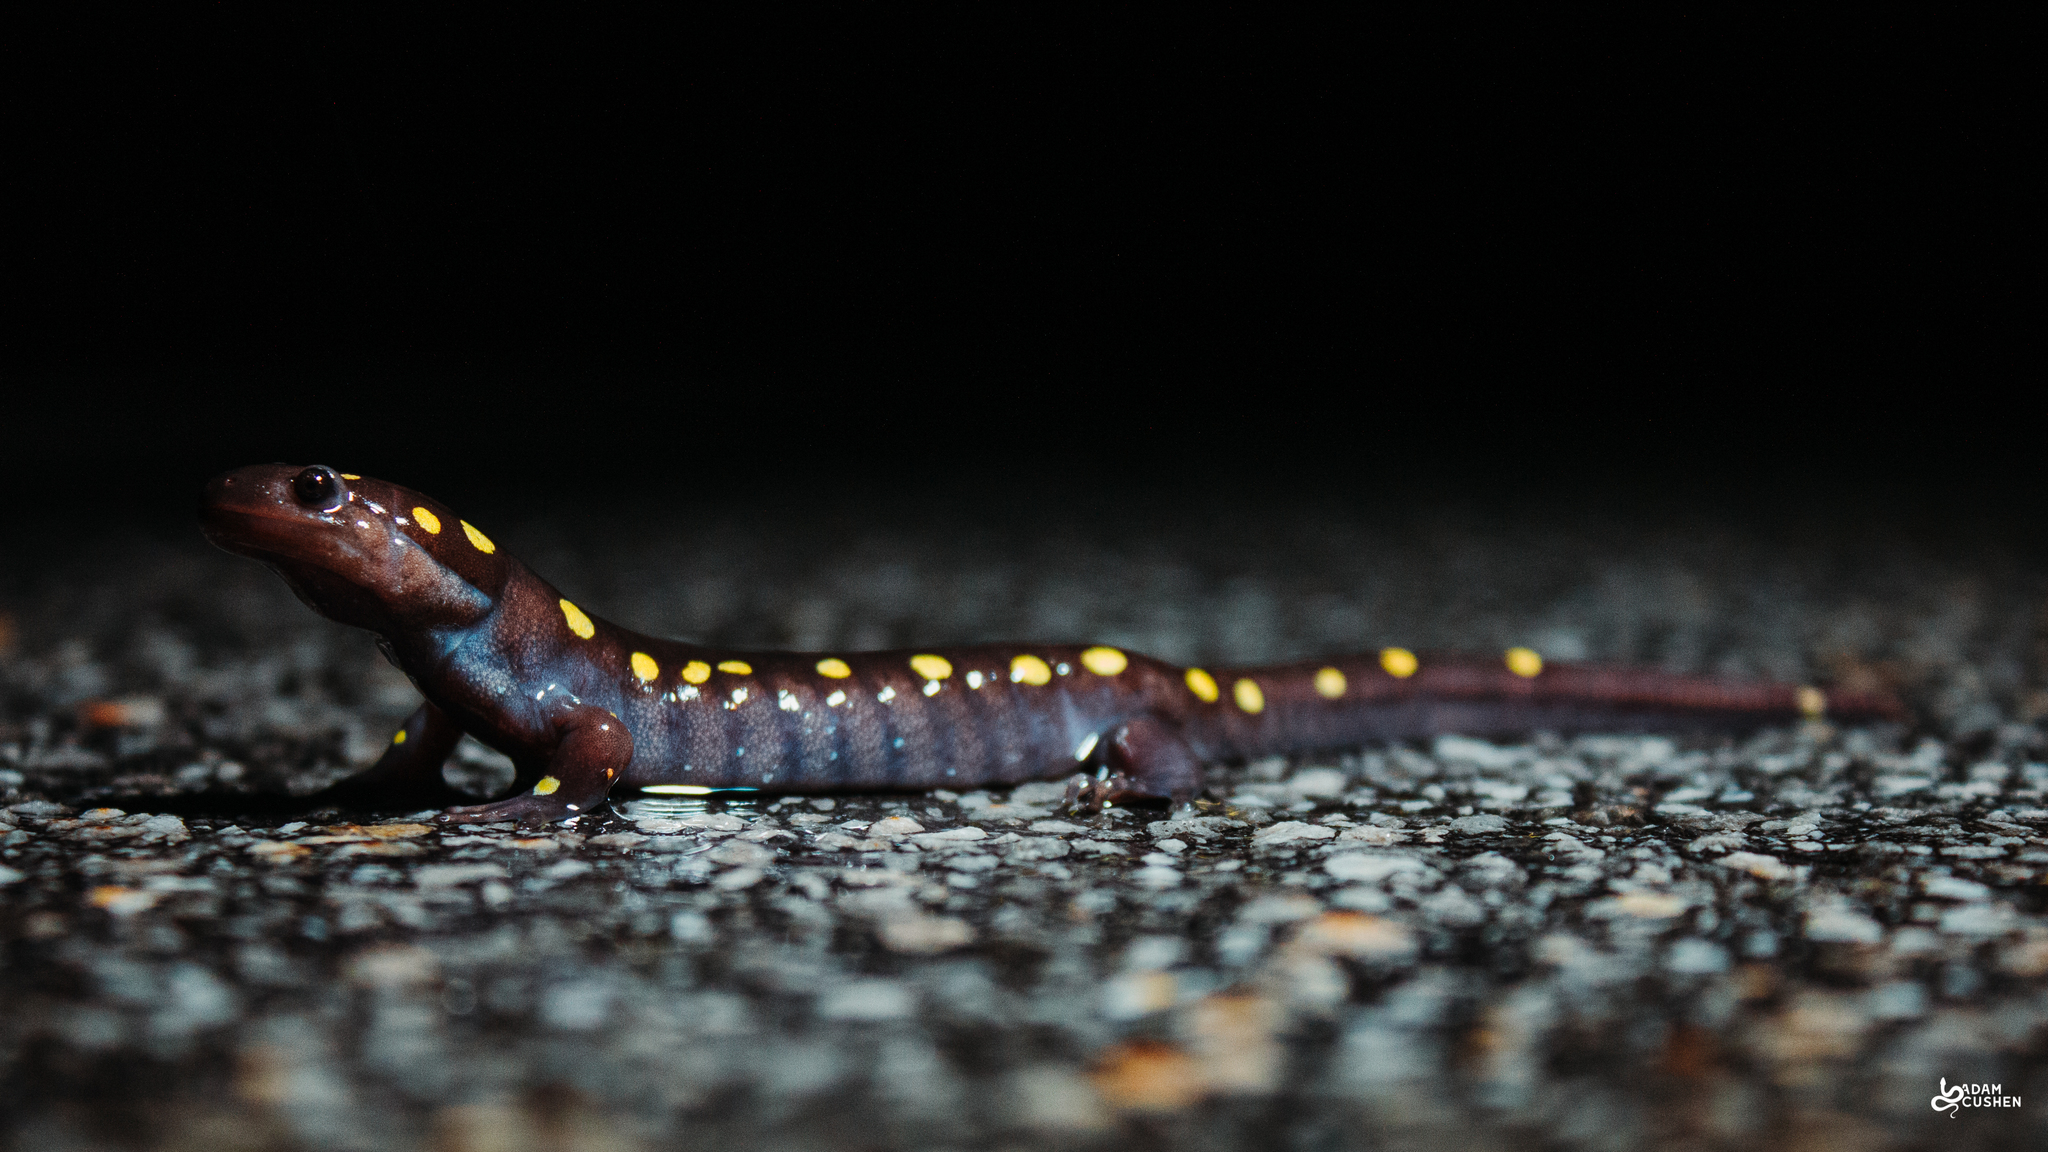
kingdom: Animalia
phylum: Chordata
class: Amphibia
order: Caudata
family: Ambystomatidae
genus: Ambystoma
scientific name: Ambystoma maculatum
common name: Spotted salamander
